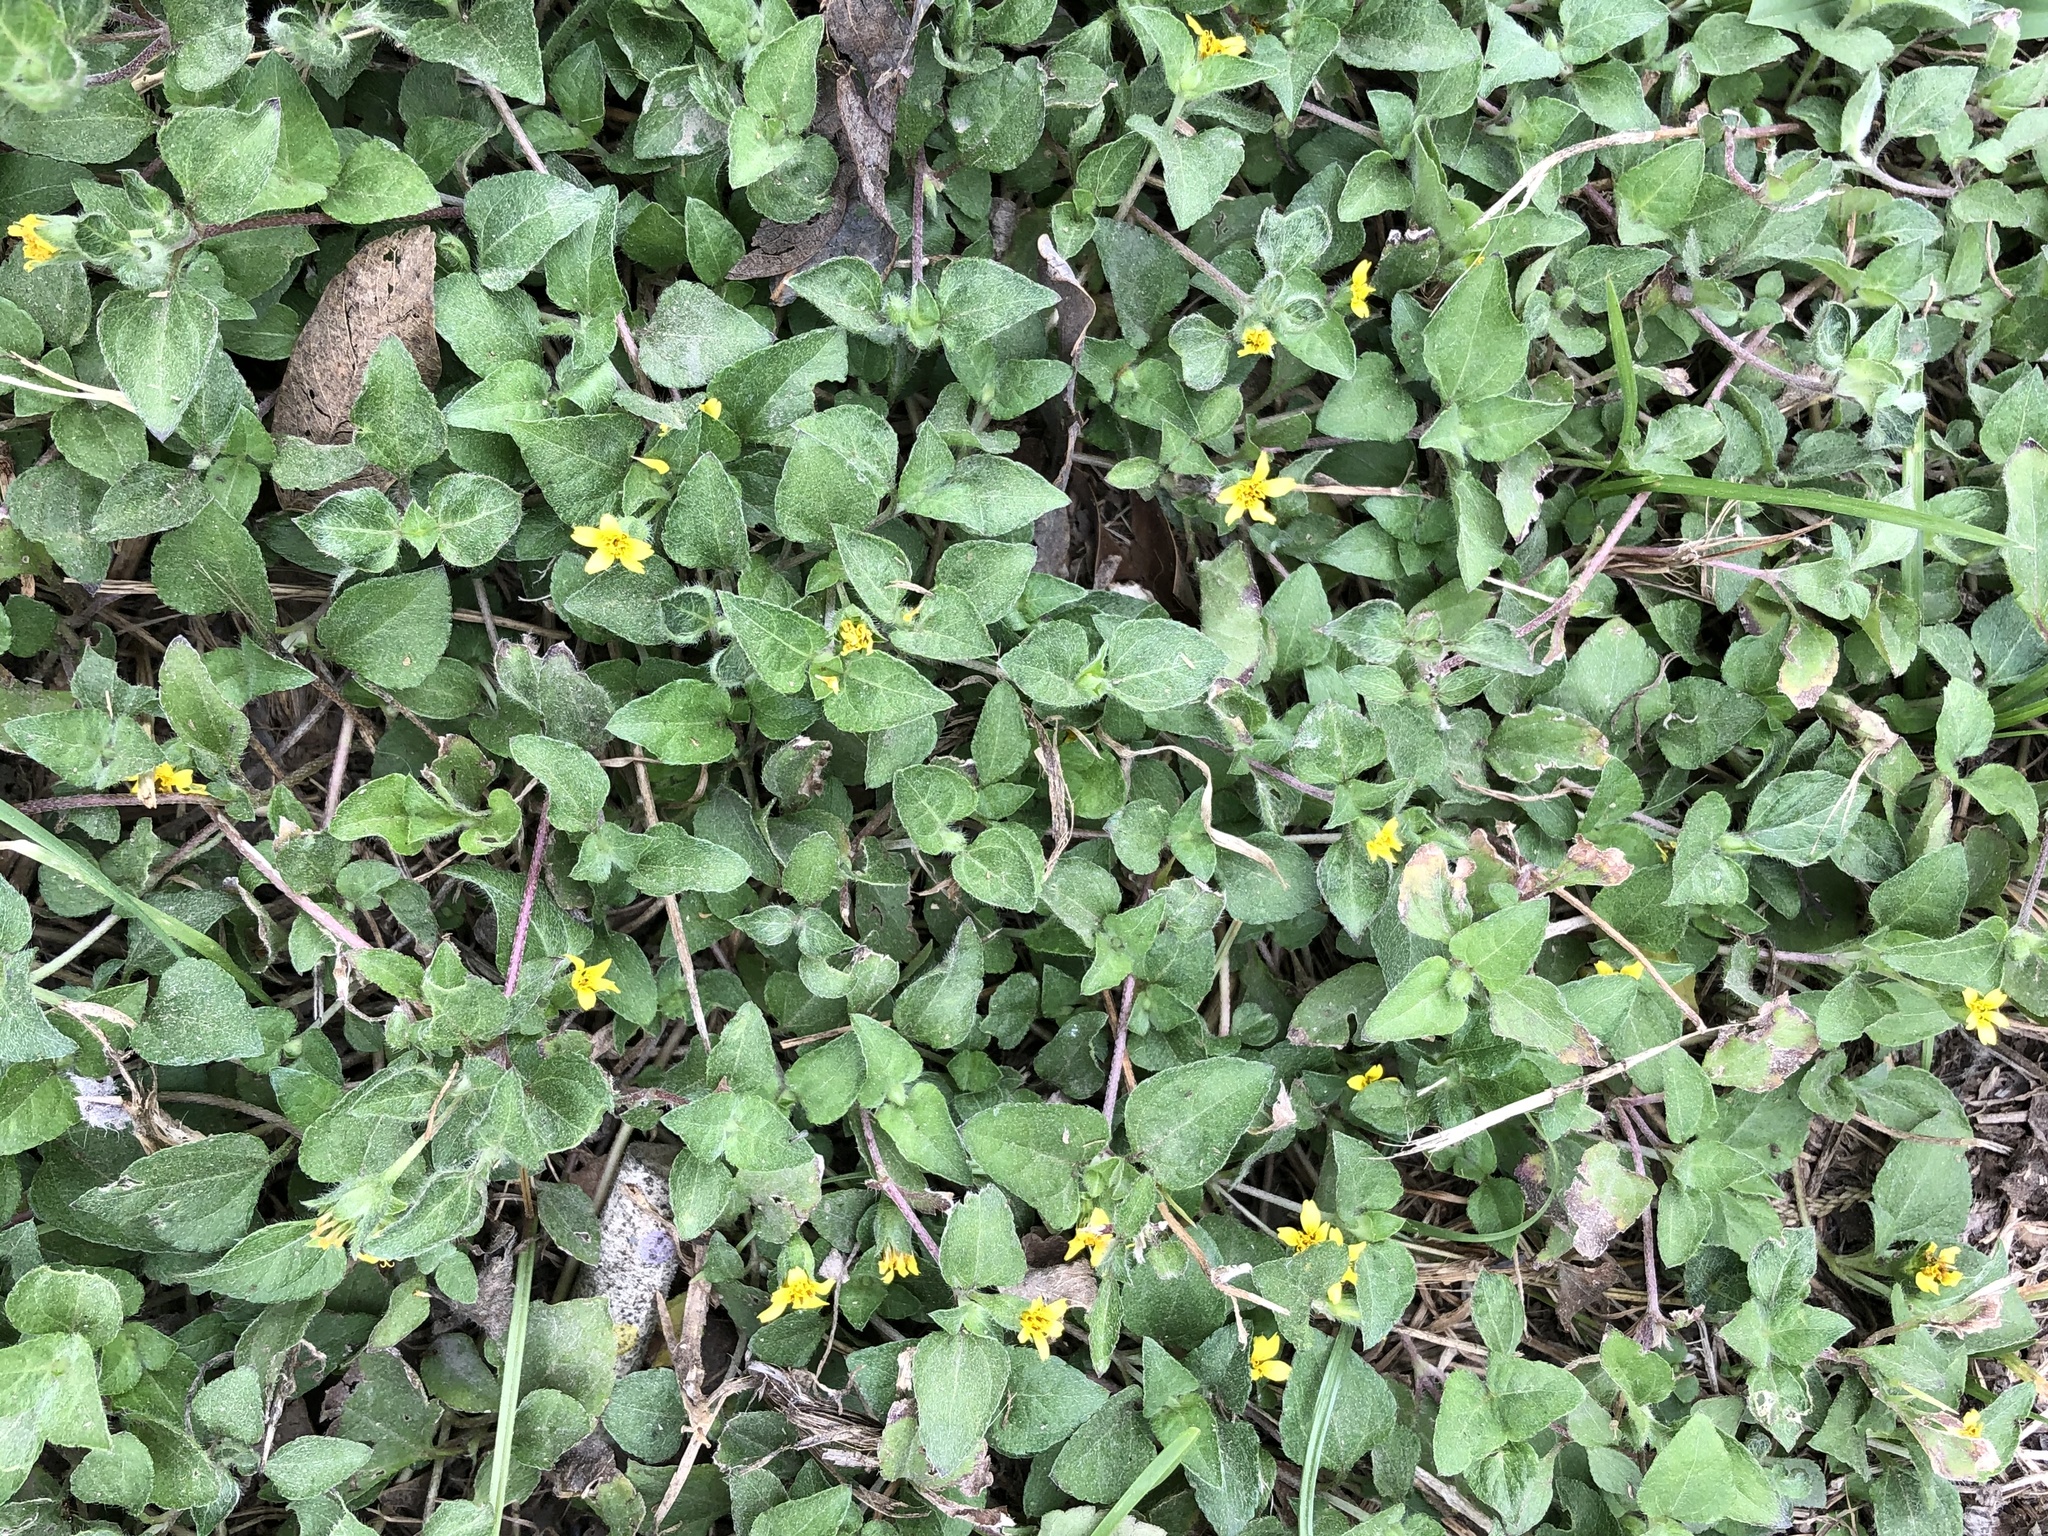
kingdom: Plantae
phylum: Tracheophyta
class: Magnoliopsida
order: Asterales
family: Asteraceae
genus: Synedrella
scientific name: Synedrella nodiflora
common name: Nodeweed
